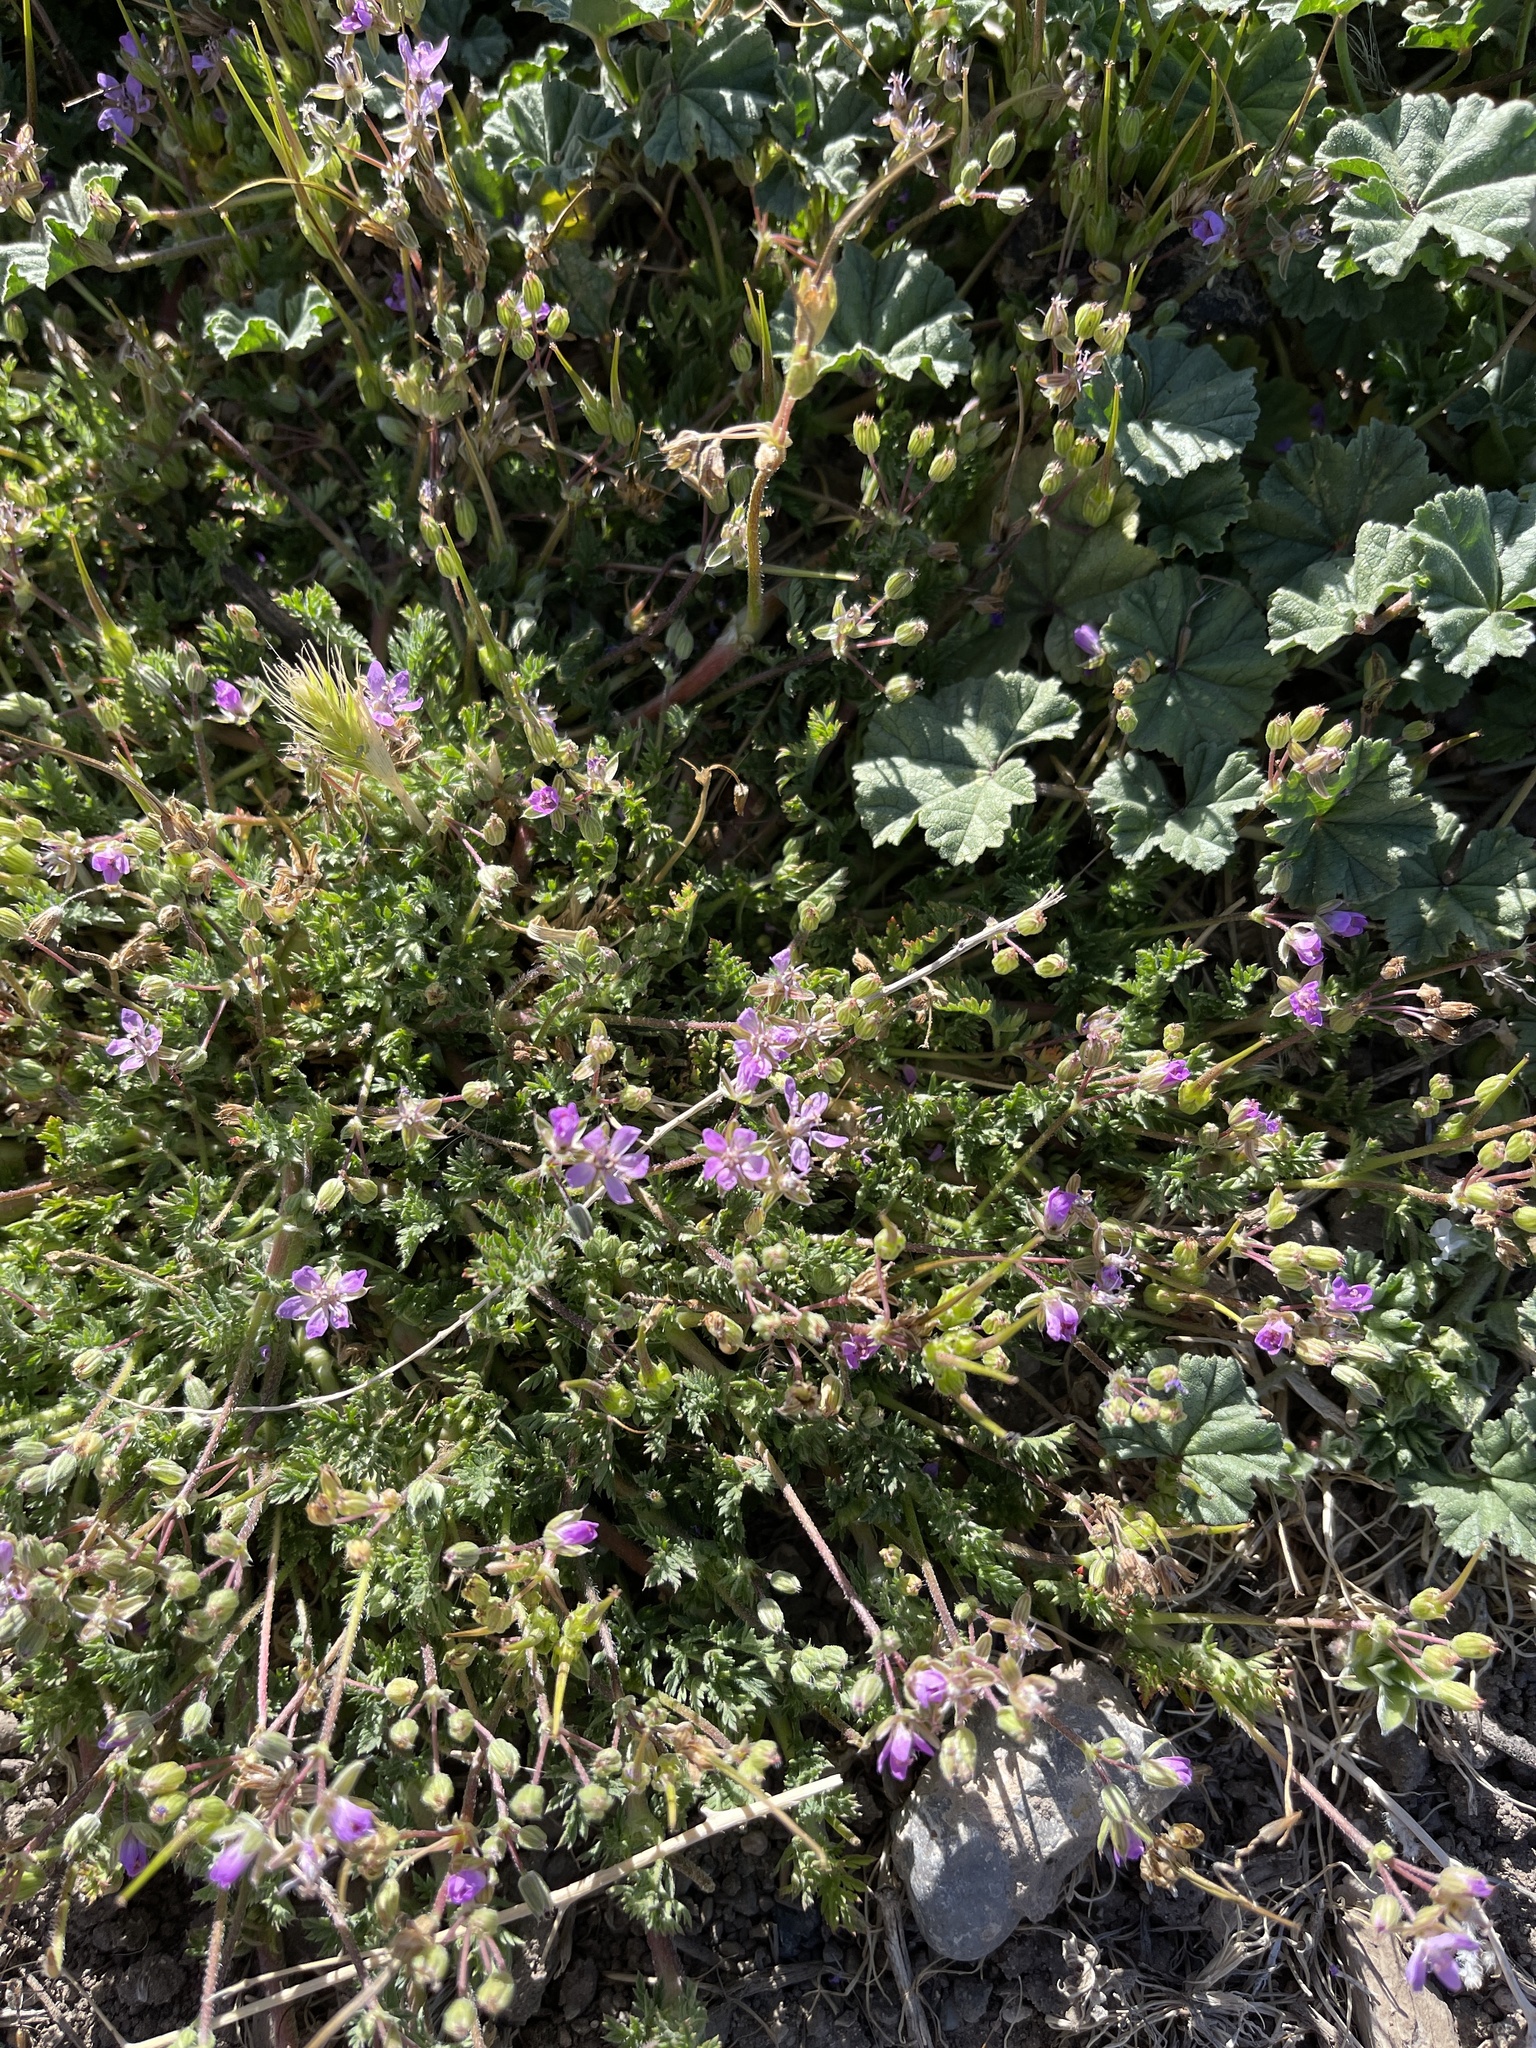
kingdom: Plantae
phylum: Tracheophyta
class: Magnoliopsida
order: Geraniales
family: Geraniaceae
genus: Erodium
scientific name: Erodium cicutarium
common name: Common stork's-bill
